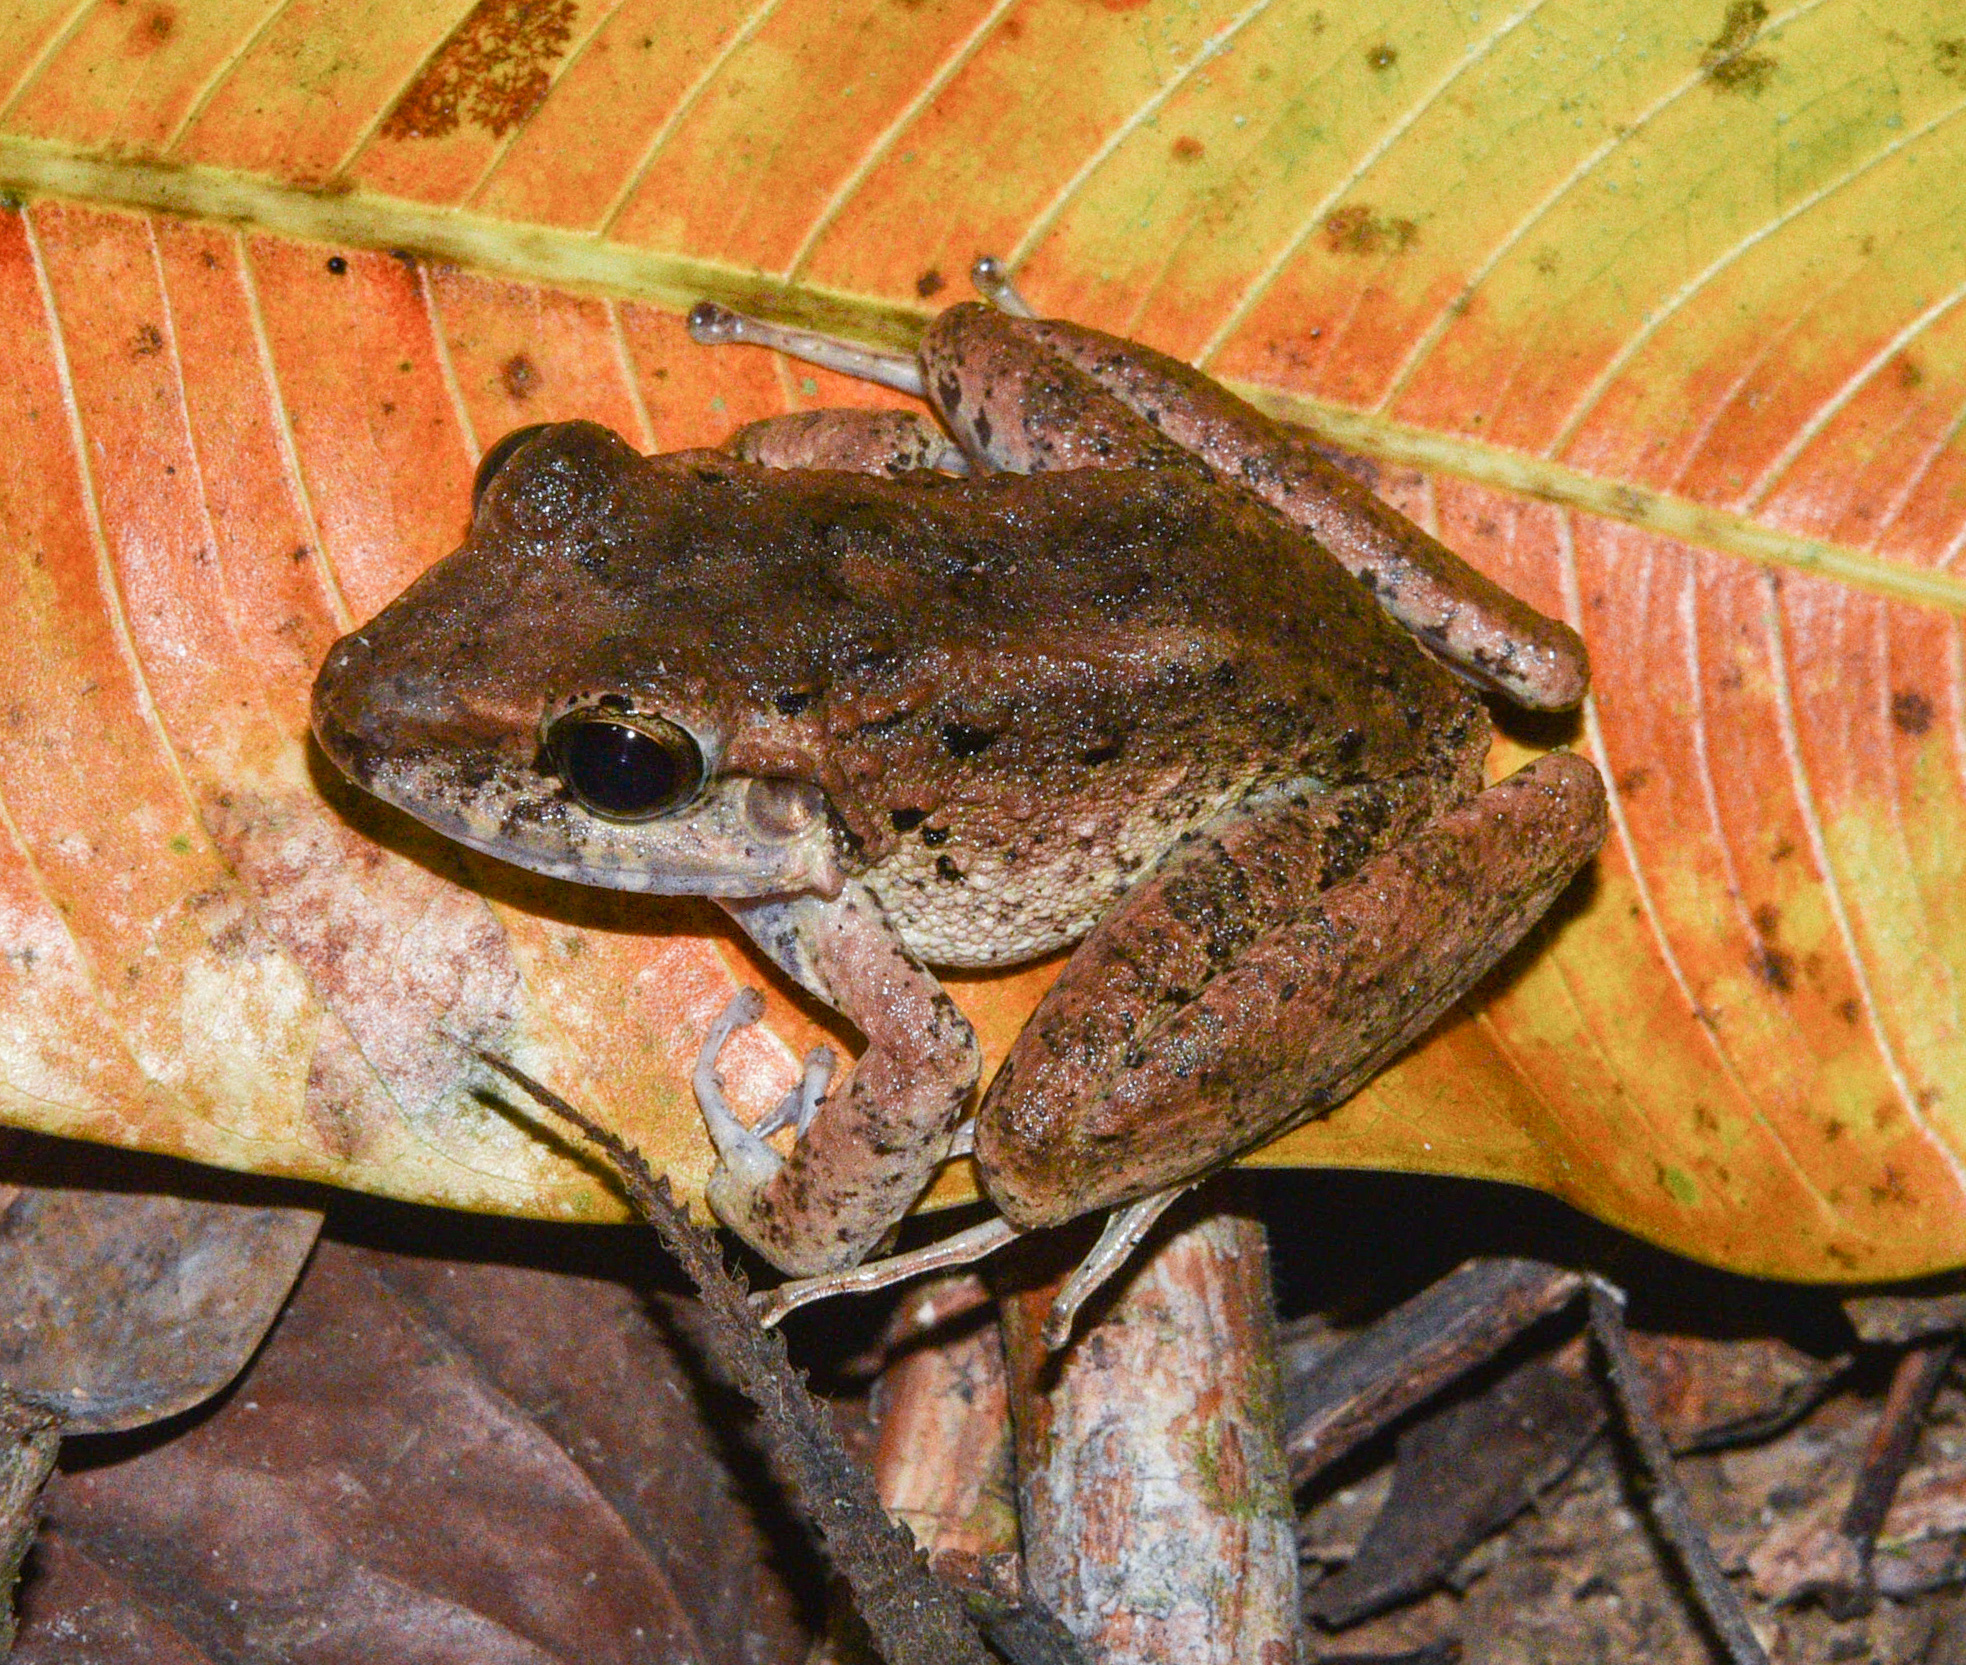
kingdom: Animalia
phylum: Chordata
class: Amphibia
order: Anura
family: Craugastoridae
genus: Craugastor
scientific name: Craugastor crassidigitus
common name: Isla bonita robber frog
